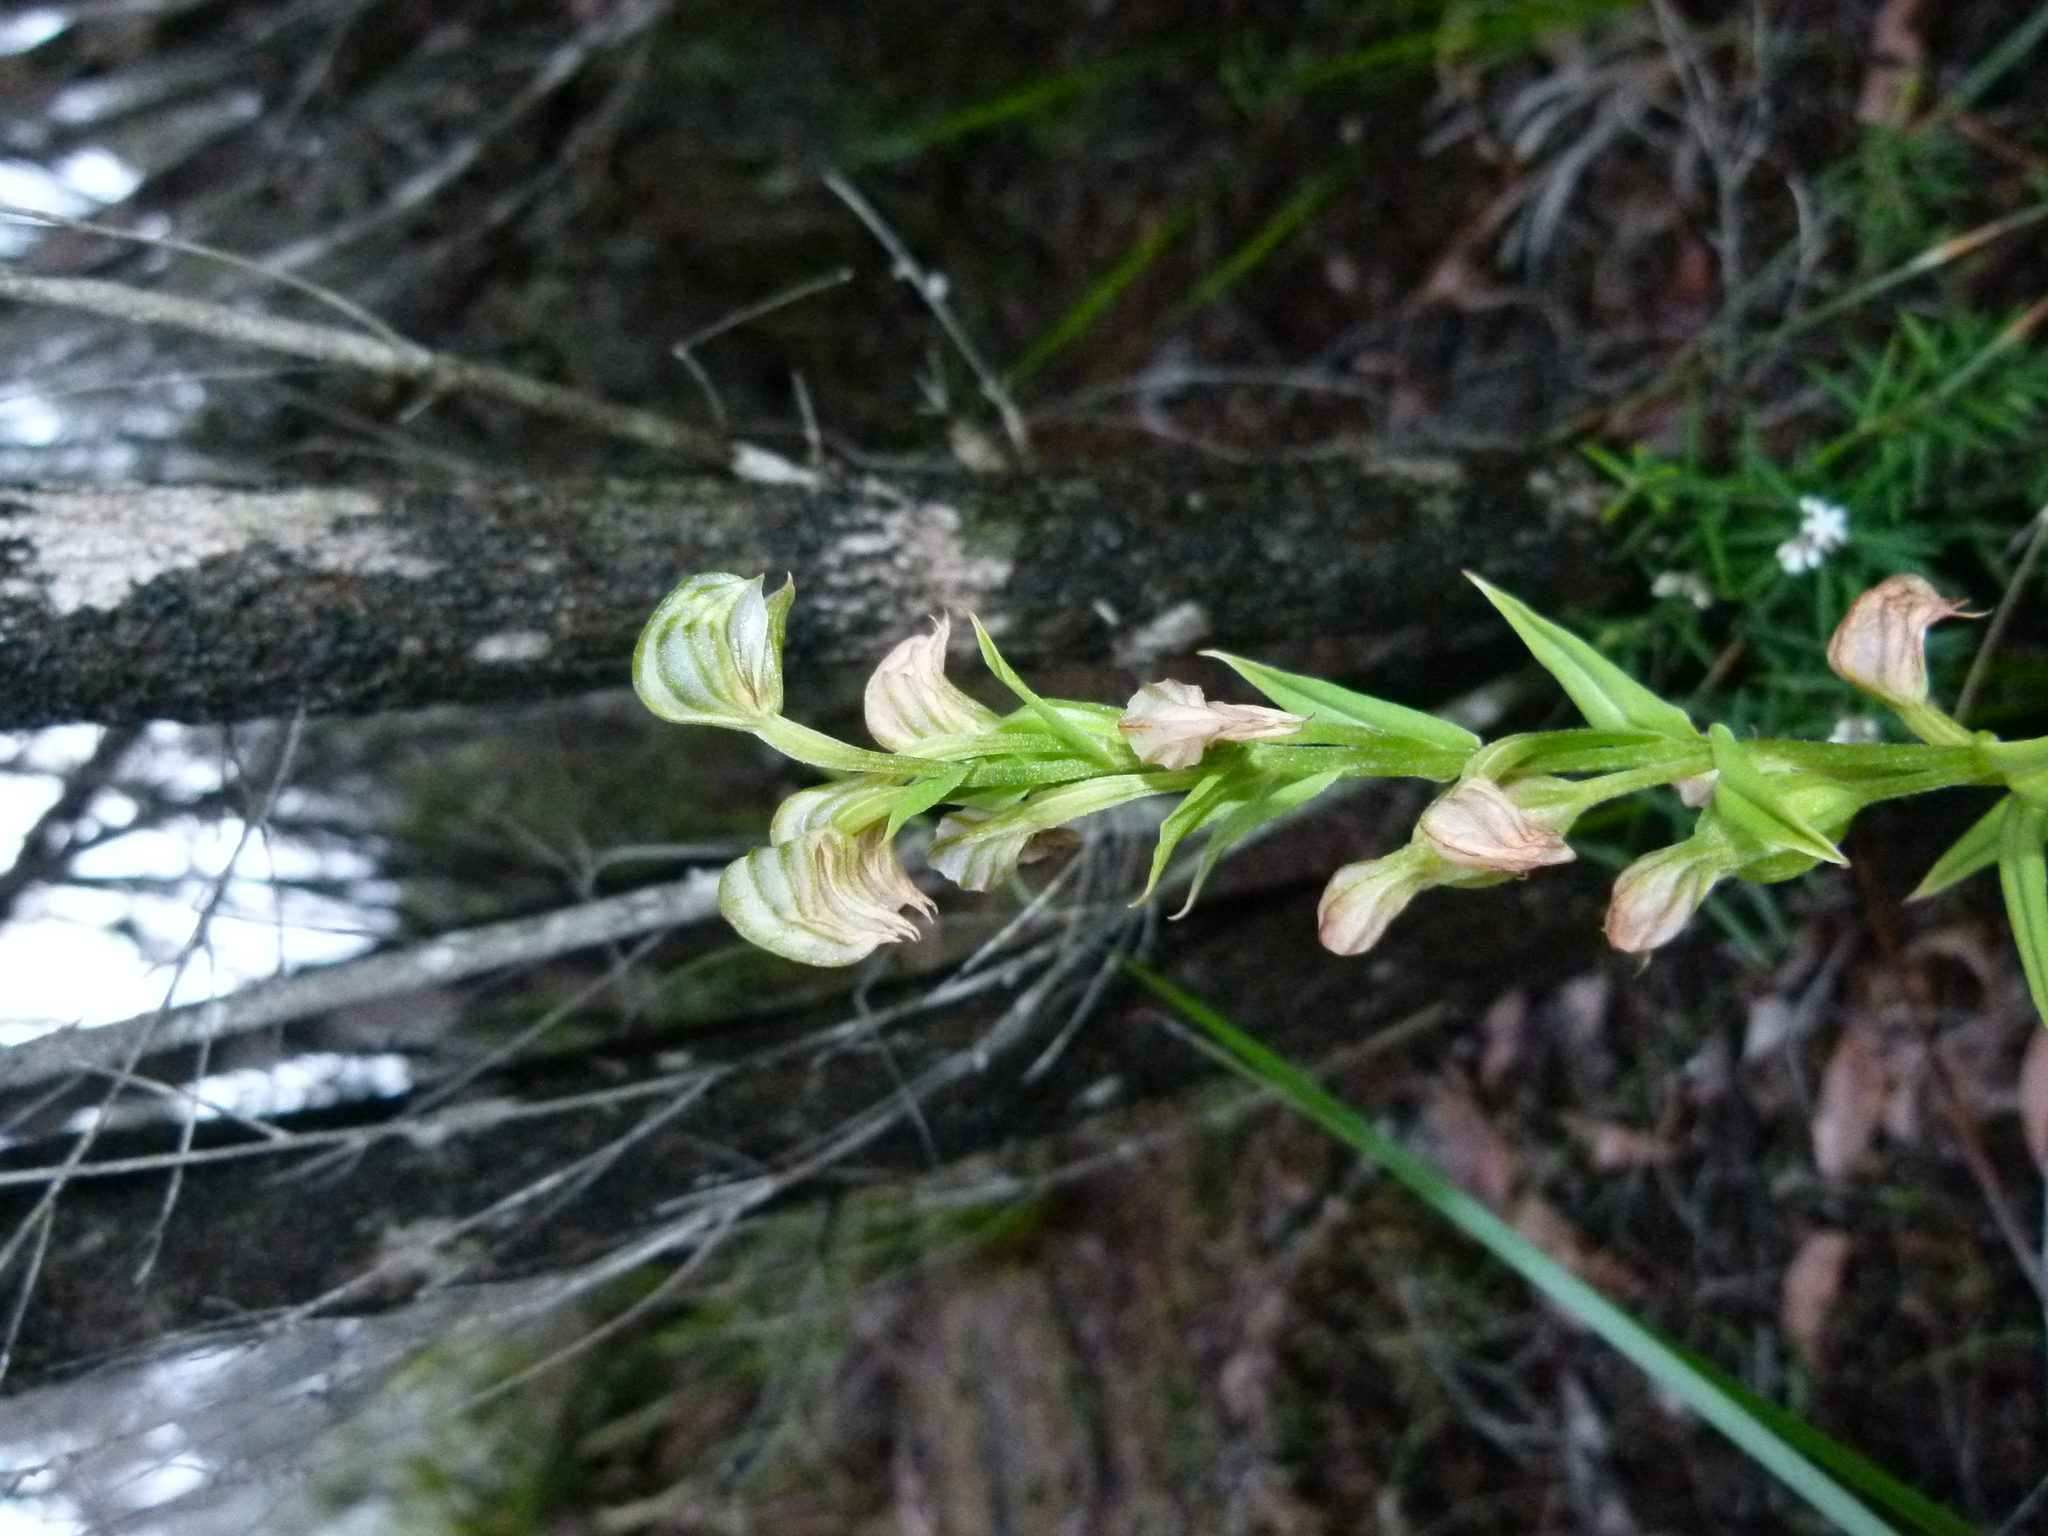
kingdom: Plantae
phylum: Tracheophyta
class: Liliopsida
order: Asparagales
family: Orchidaceae
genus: Pterostylis
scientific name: Pterostylis vittata
